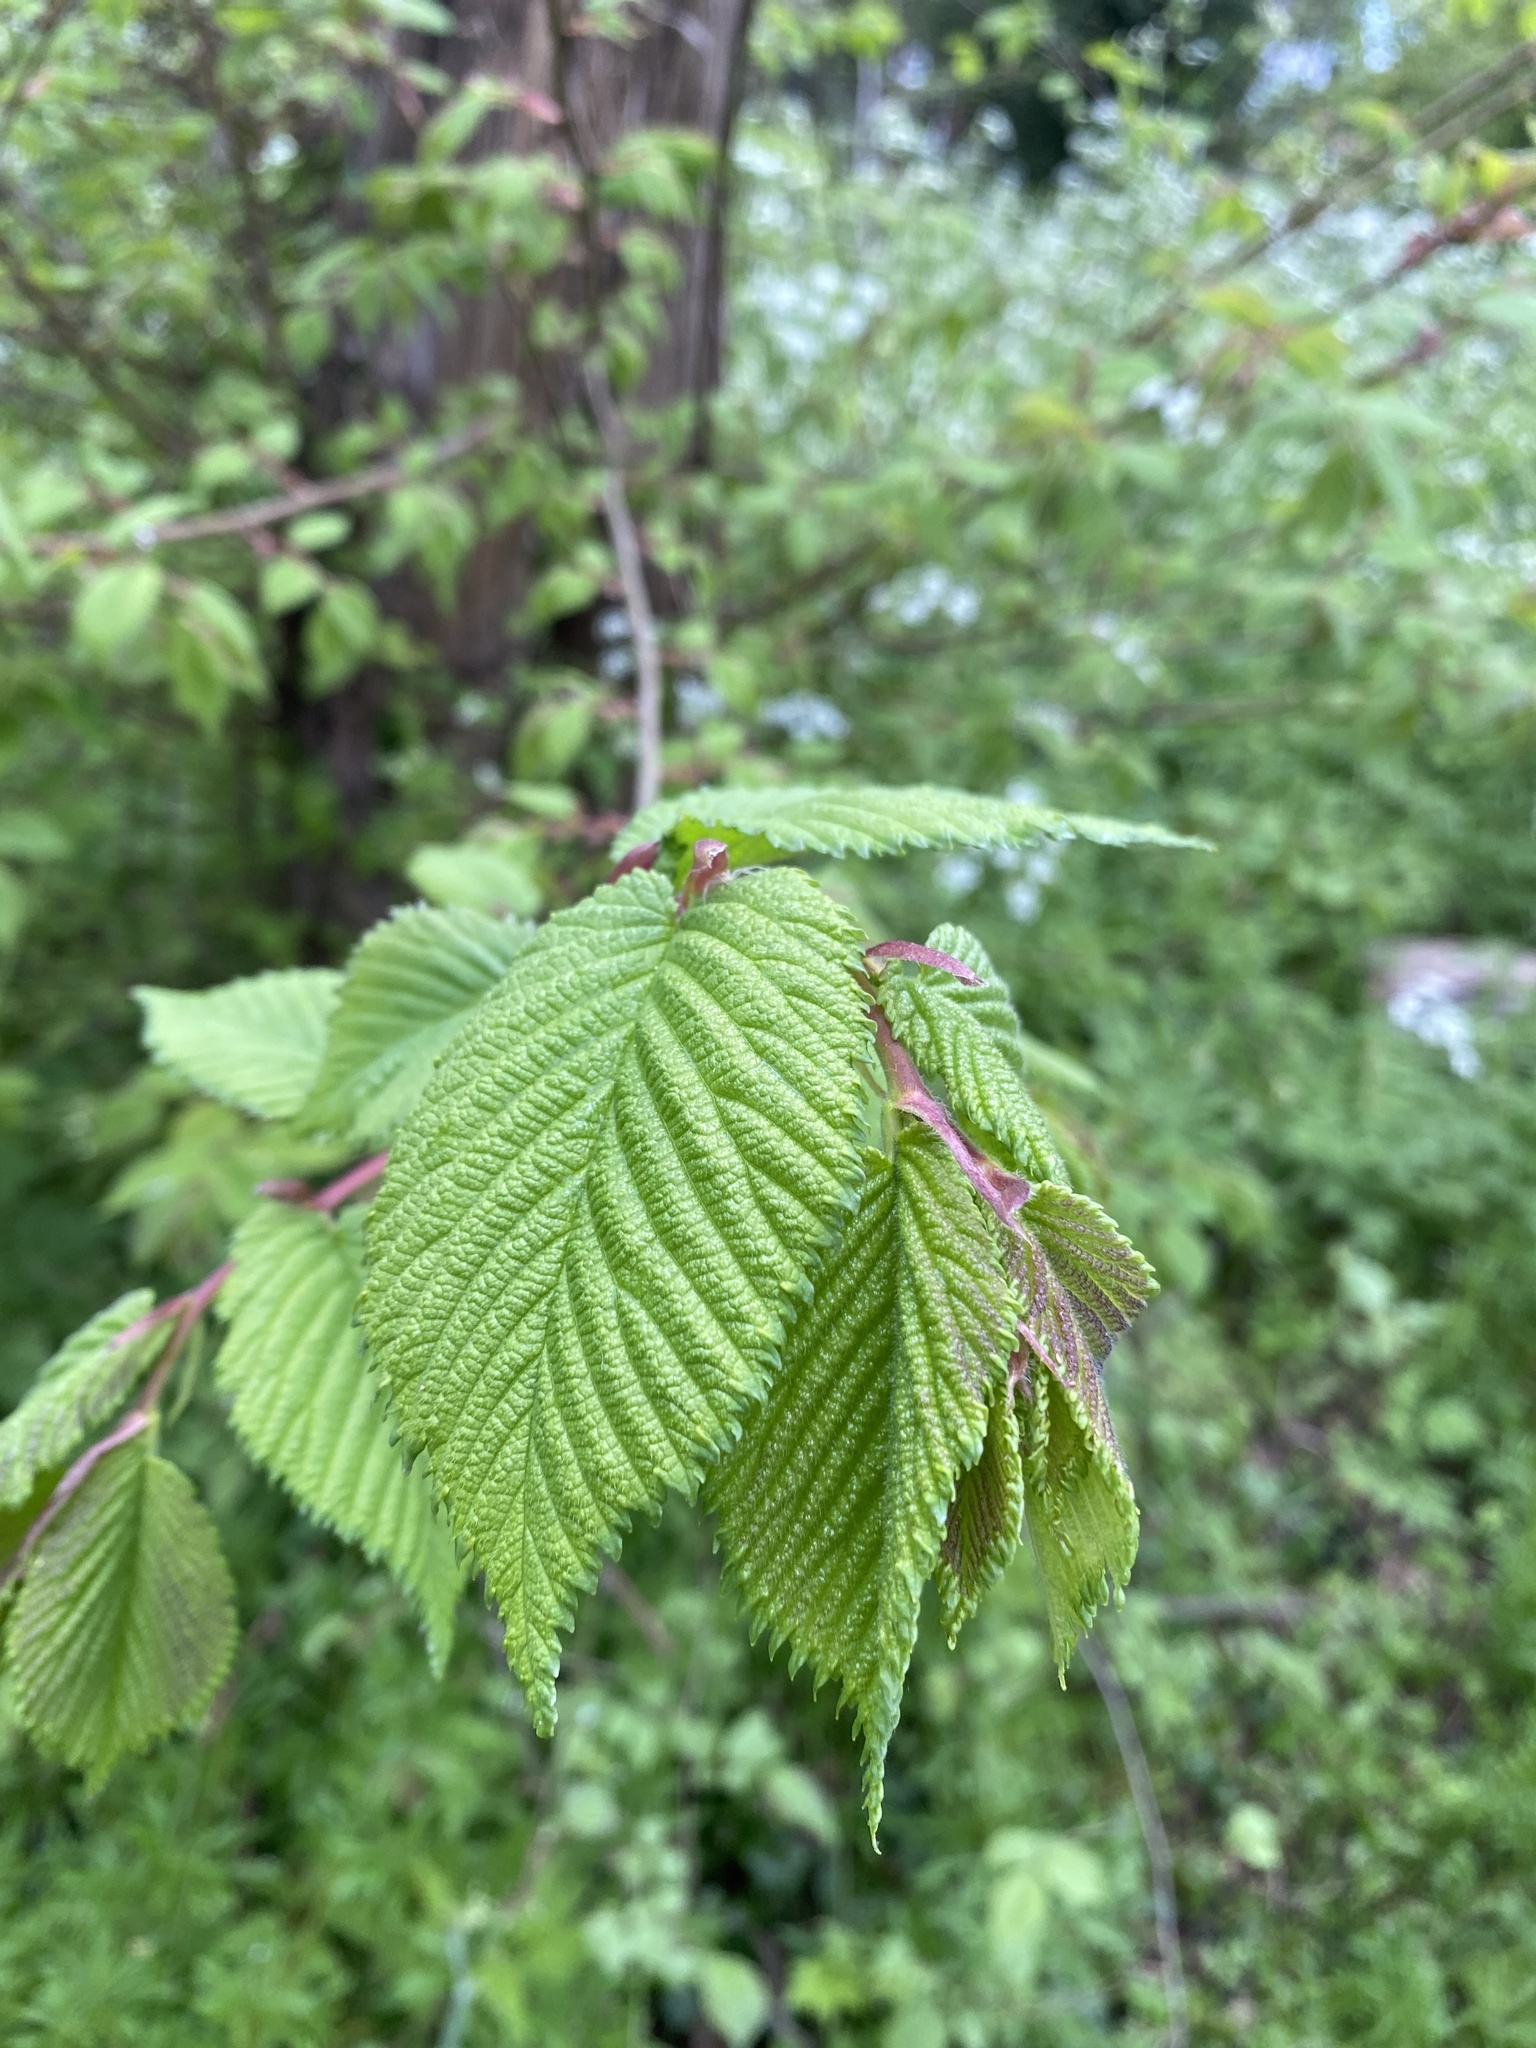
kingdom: Plantae
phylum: Tracheophyta
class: Magnoliopsida
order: Rosales
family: Ulmaceae
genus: Ulmus
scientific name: Ulmus glabra
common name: Wych elm
